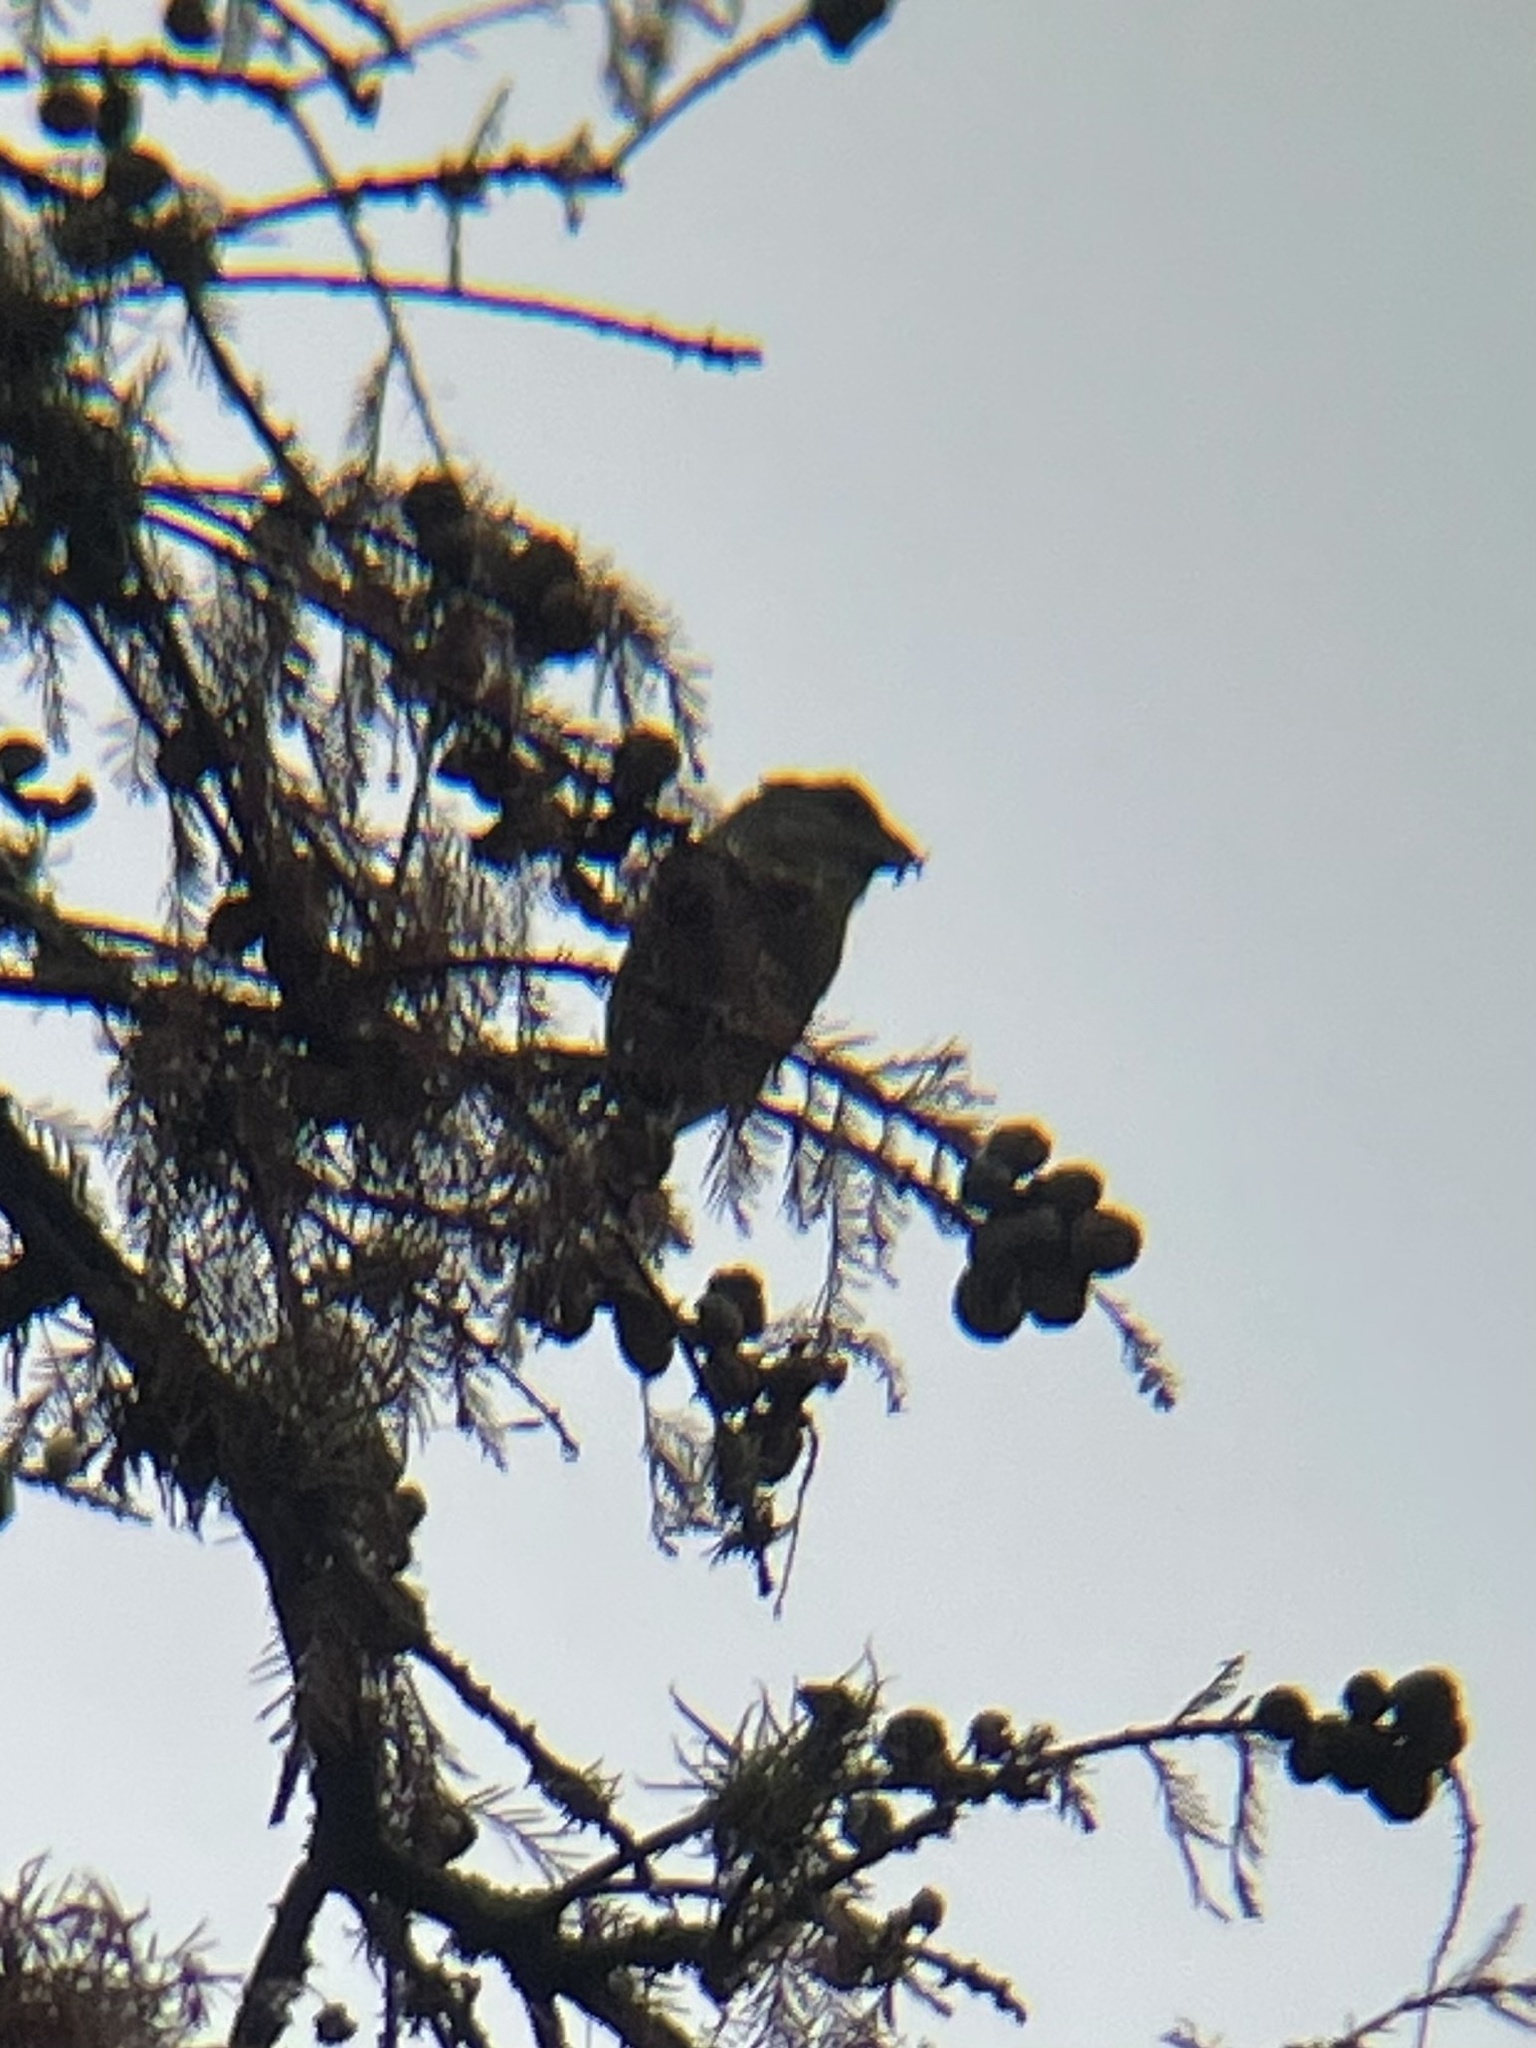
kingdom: Animalia
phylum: Chordata
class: Aves
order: Passeriformes
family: Fringillidae
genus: Loxia
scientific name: Loxia curvirostra
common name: Red crossbill
